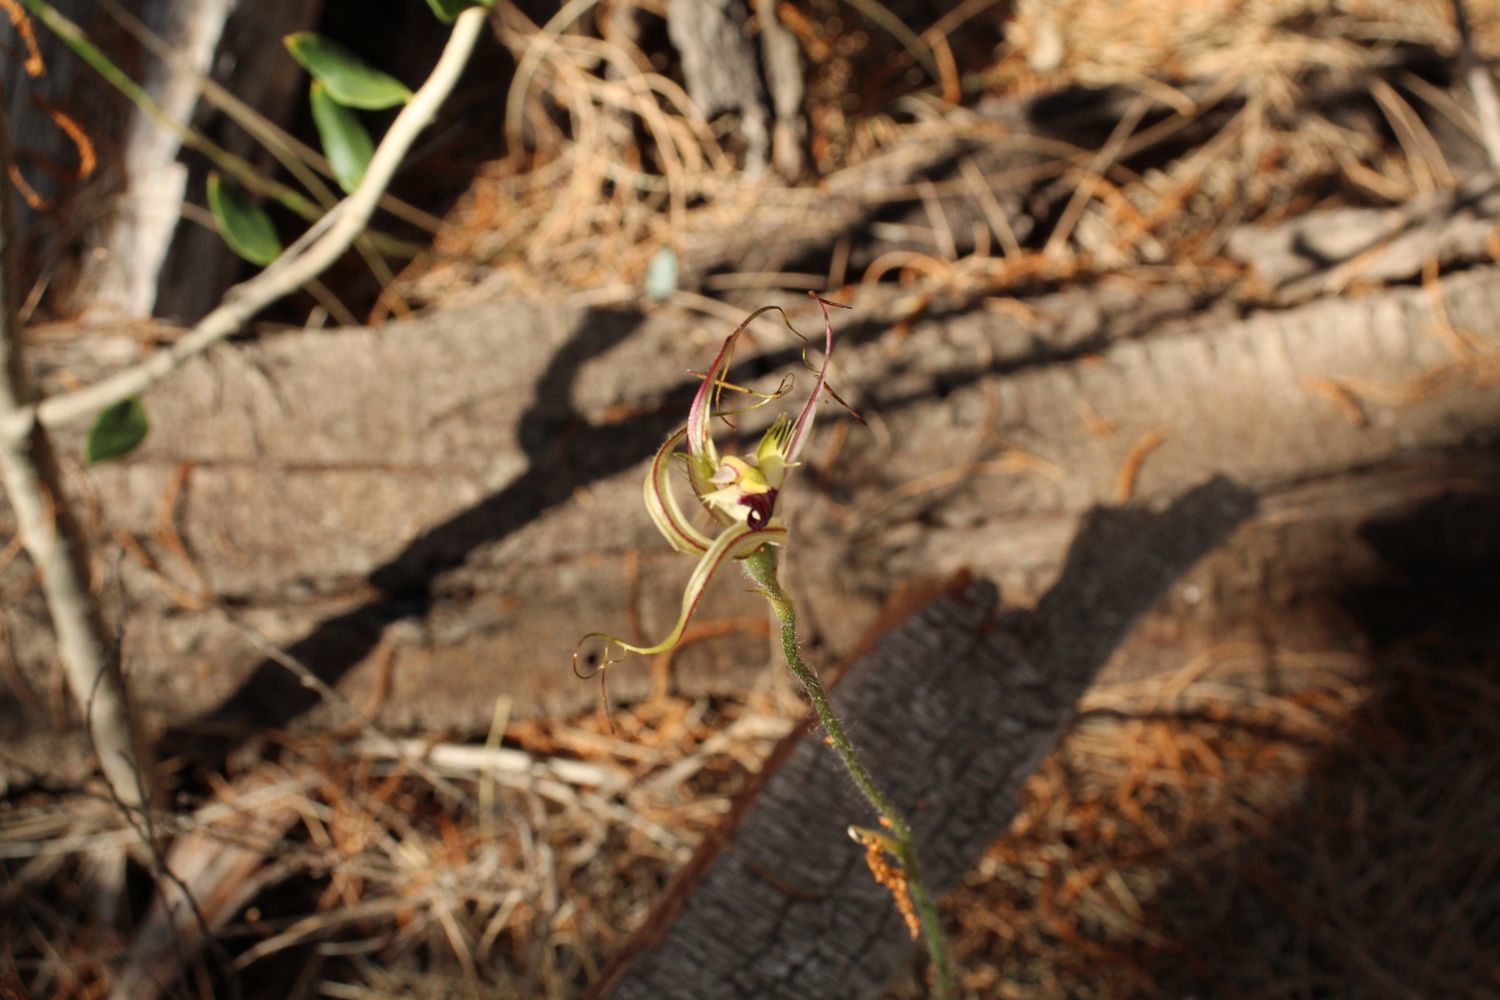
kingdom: Plantae
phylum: Tracheophyta
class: Liliopsida
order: Asparagales
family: Orchidaceae
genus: Caladenia
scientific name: Caladenia falcata
